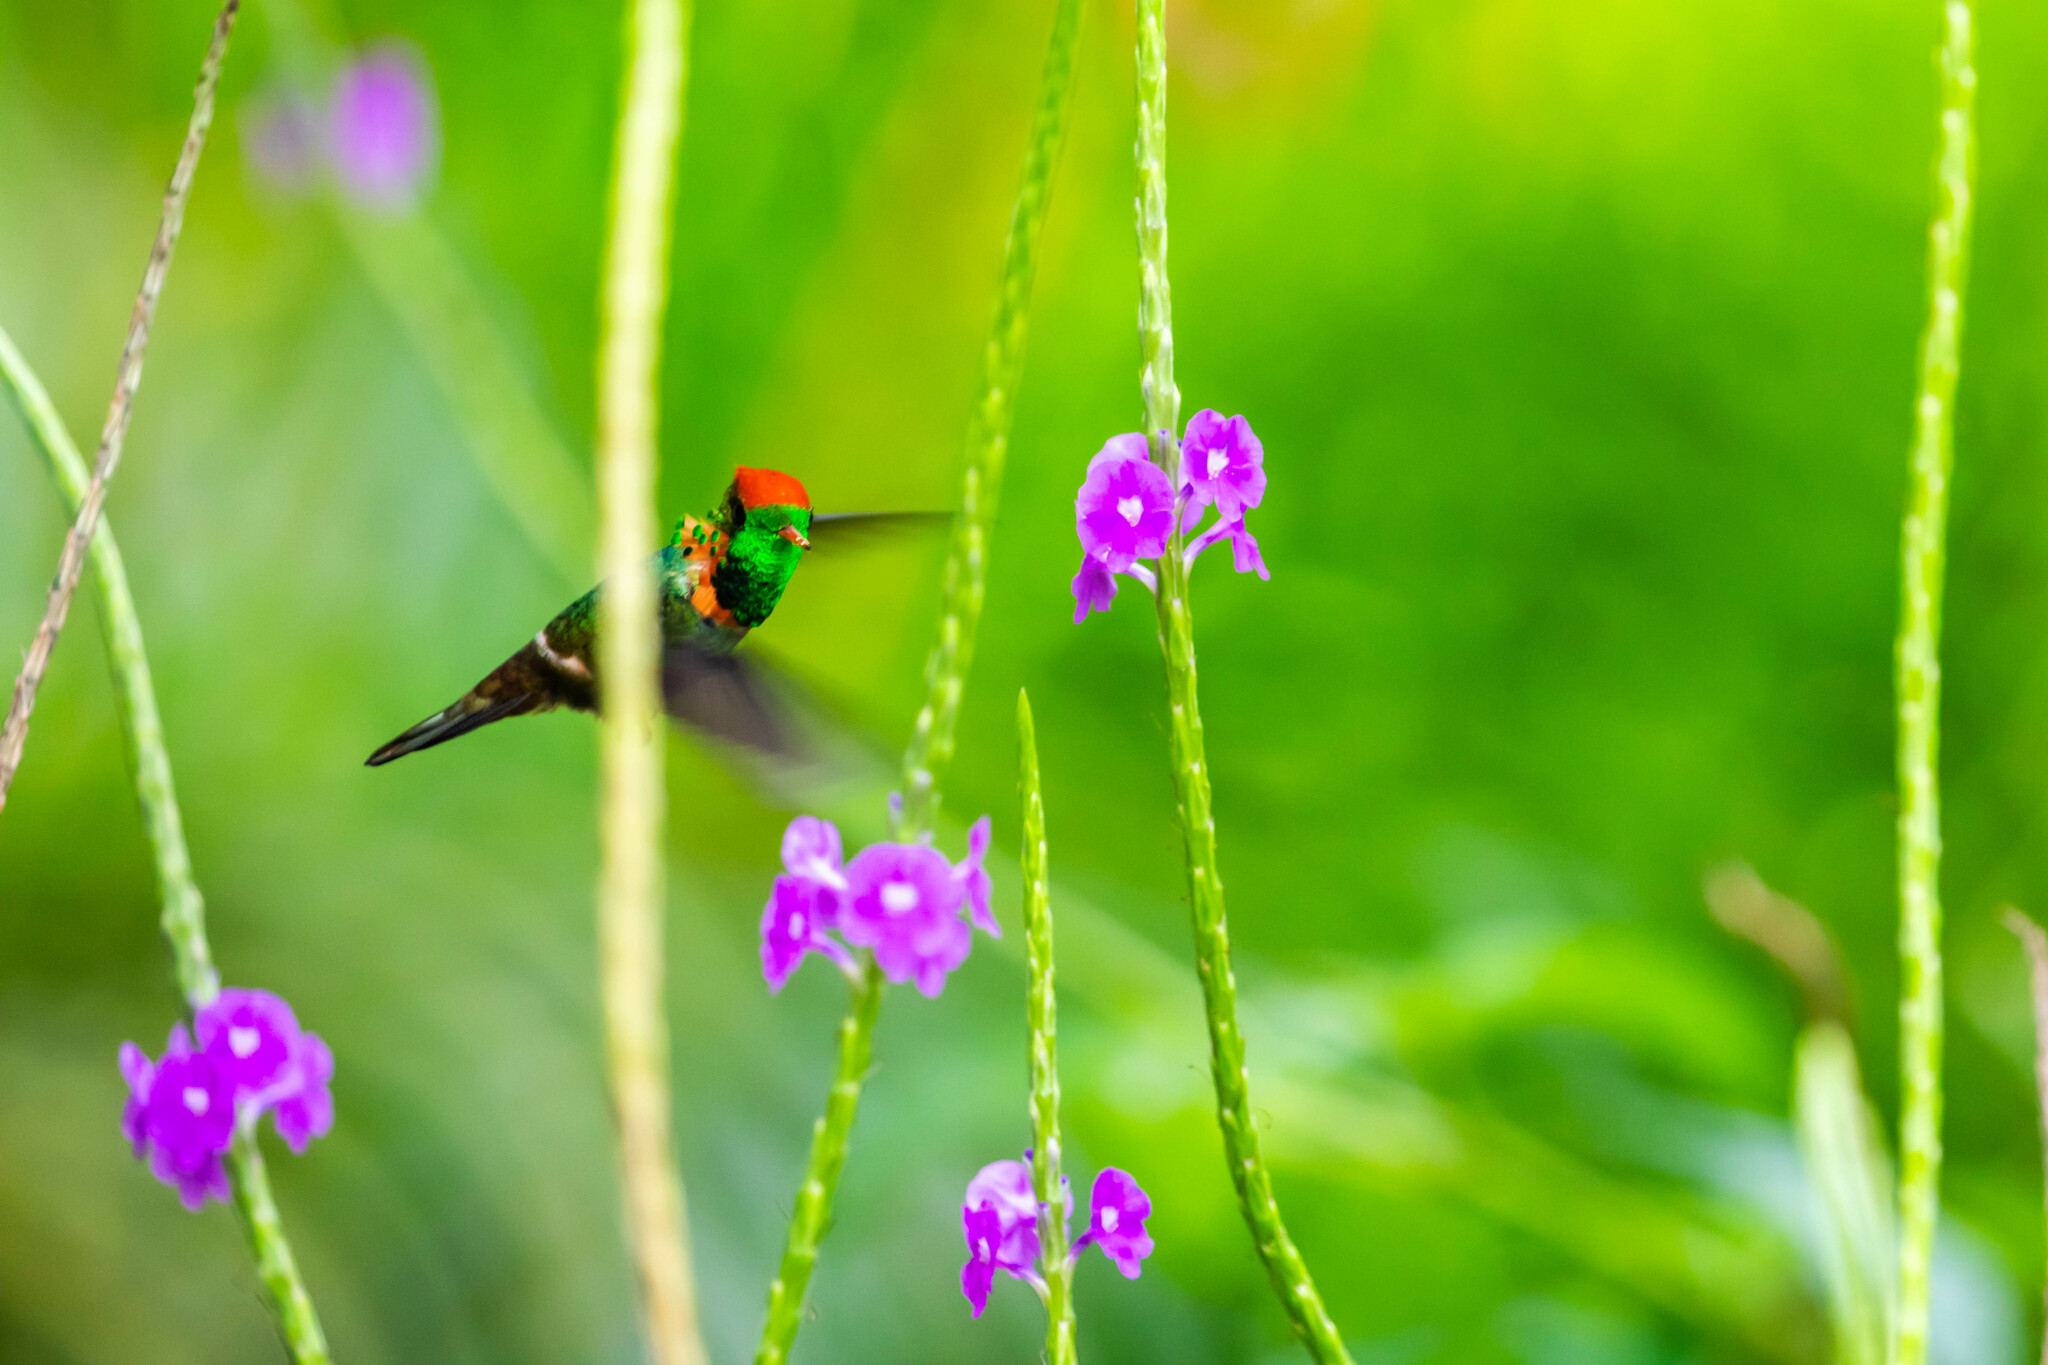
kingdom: Animalia
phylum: Chordata
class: Aves
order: Apodiformes
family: Trochilidae
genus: Lophornis
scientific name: Lophornis ornatus
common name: Tufted coquette
